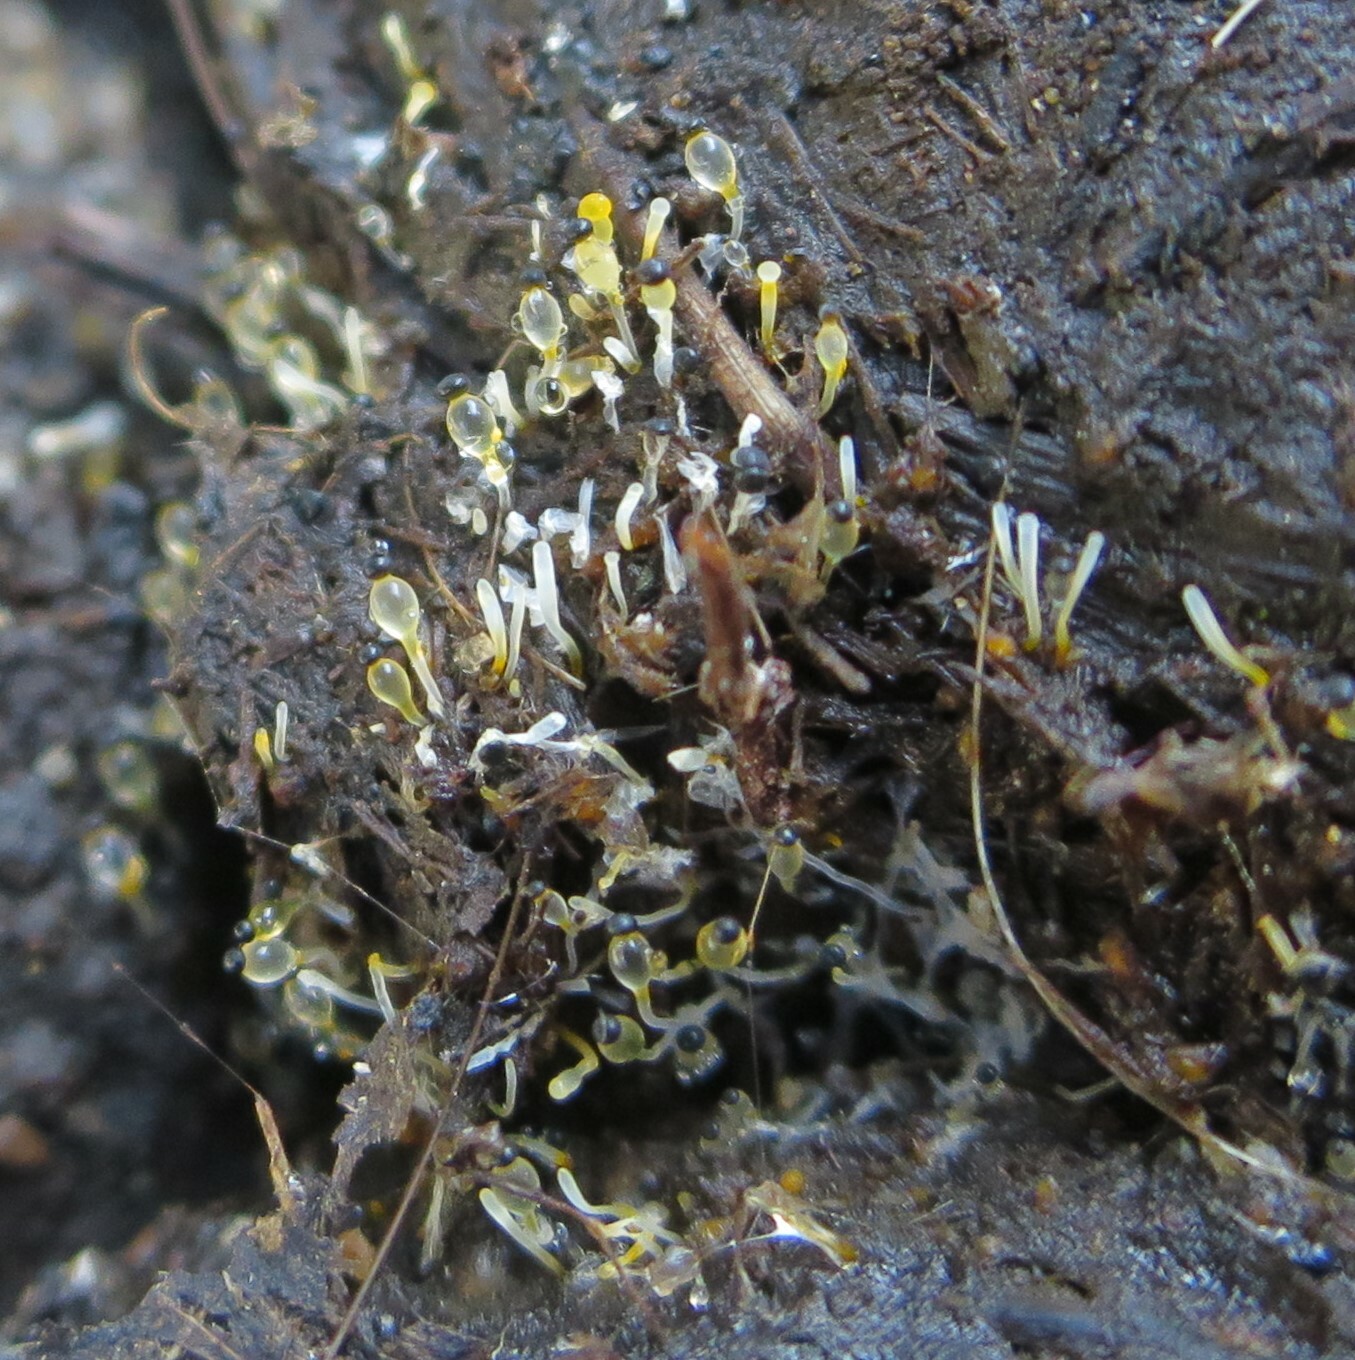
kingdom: Fungi
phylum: Mucoromycota
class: Mucoromycetes
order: Mucorales
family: Pilobolaceae
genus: Pilobolus
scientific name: Pilobolus
